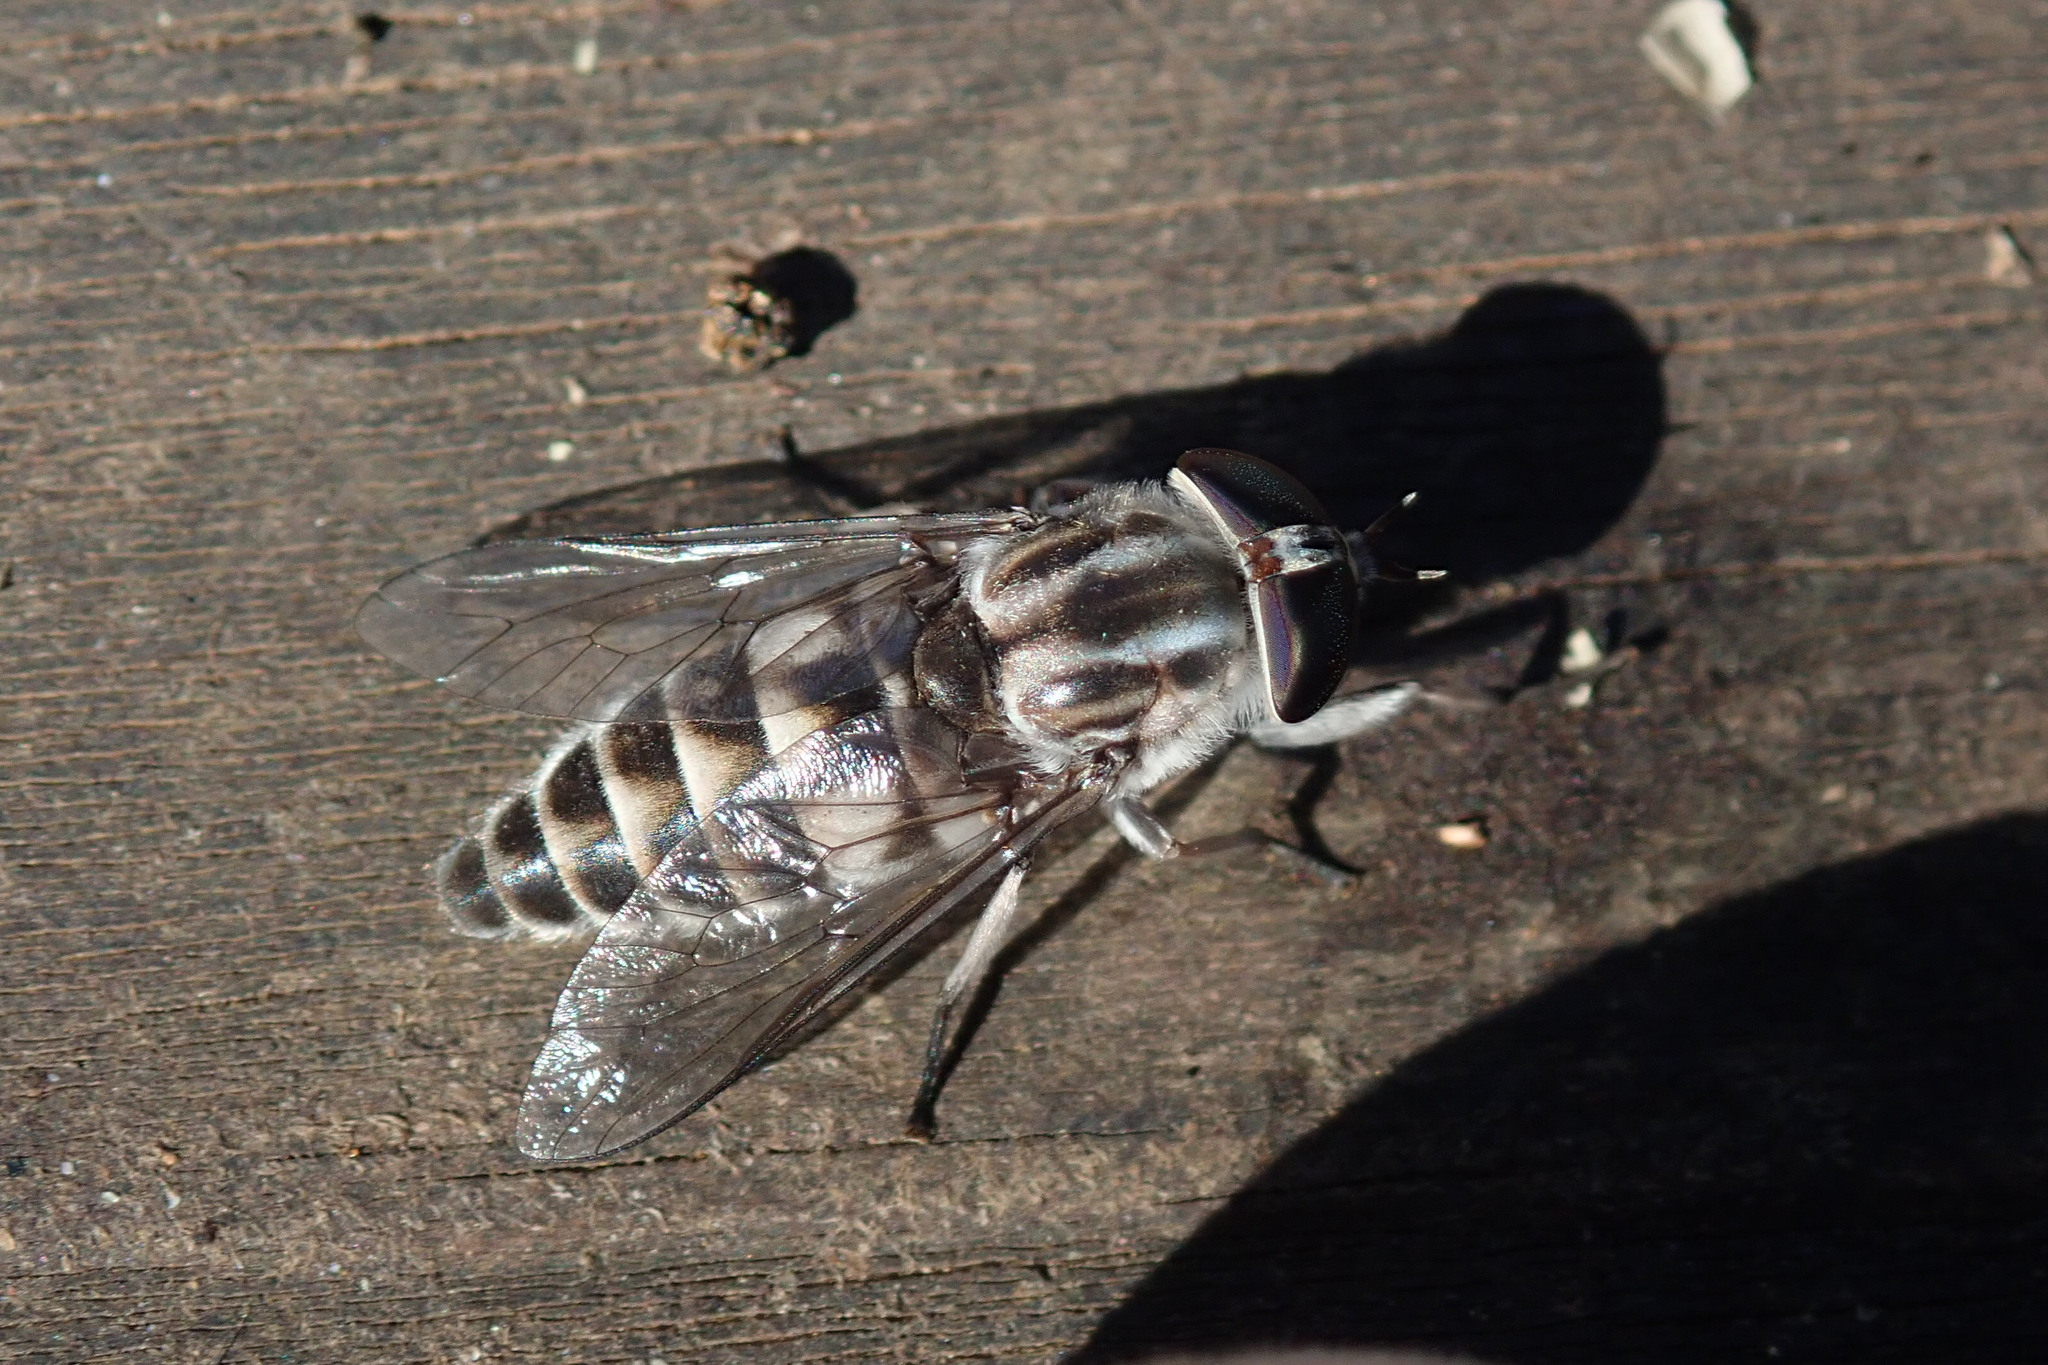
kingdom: Animalia
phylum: Arthropoda
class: Insecta
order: Diptera
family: Tabanidae
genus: Tabanus
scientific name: Tabanus atrimanus
